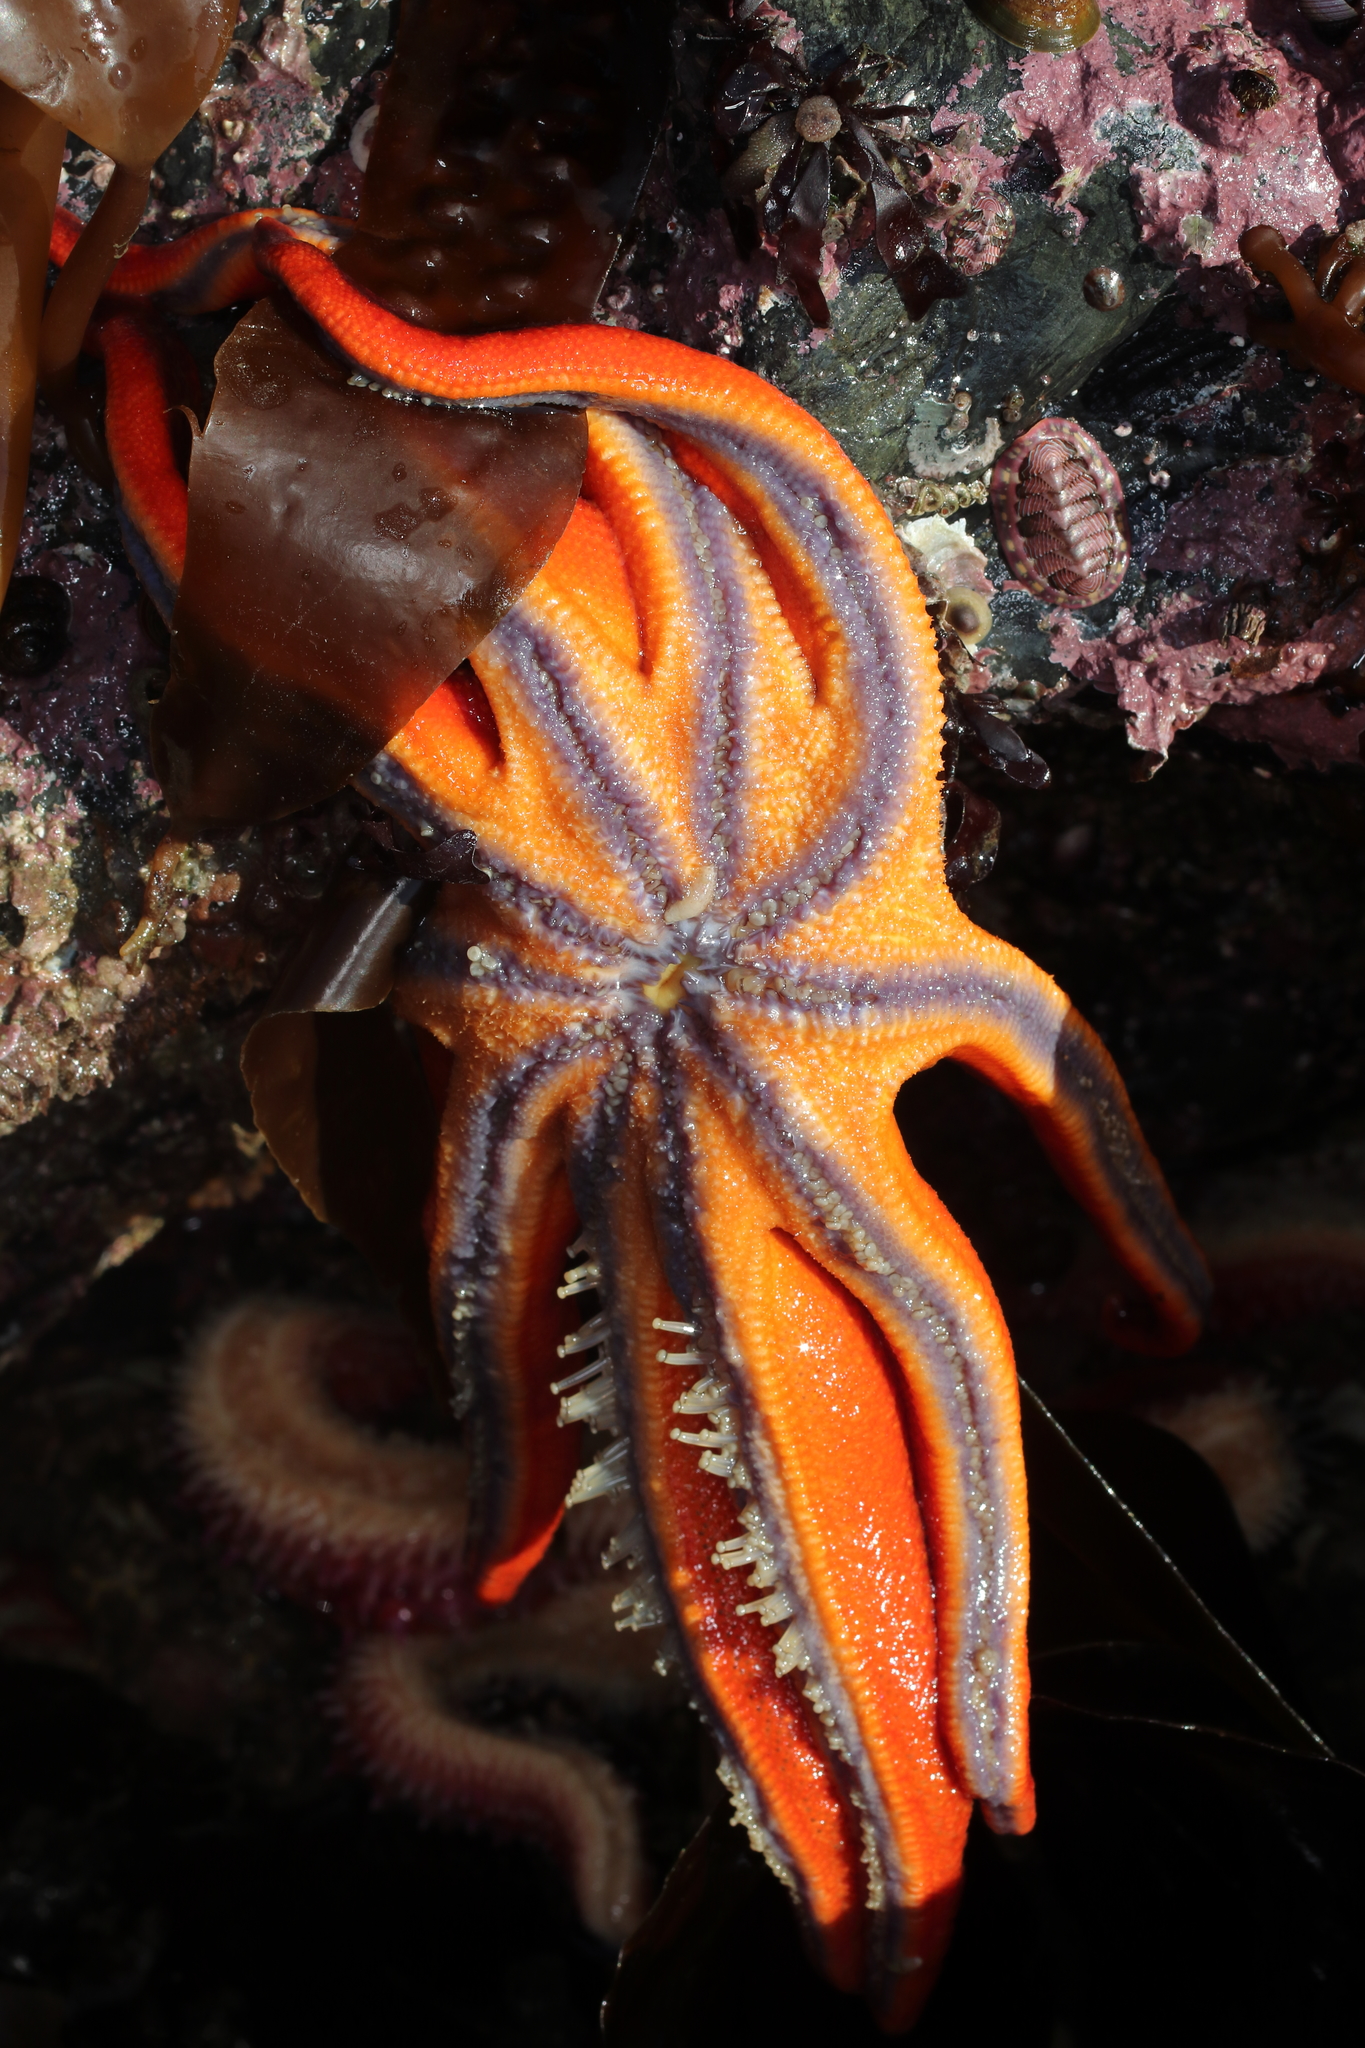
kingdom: Animalia
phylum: Echinodermata
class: Asteroidea
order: Valvatida
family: Solasteridae
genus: Solaster
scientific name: Solaster stimpsoni
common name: Orange sun star
